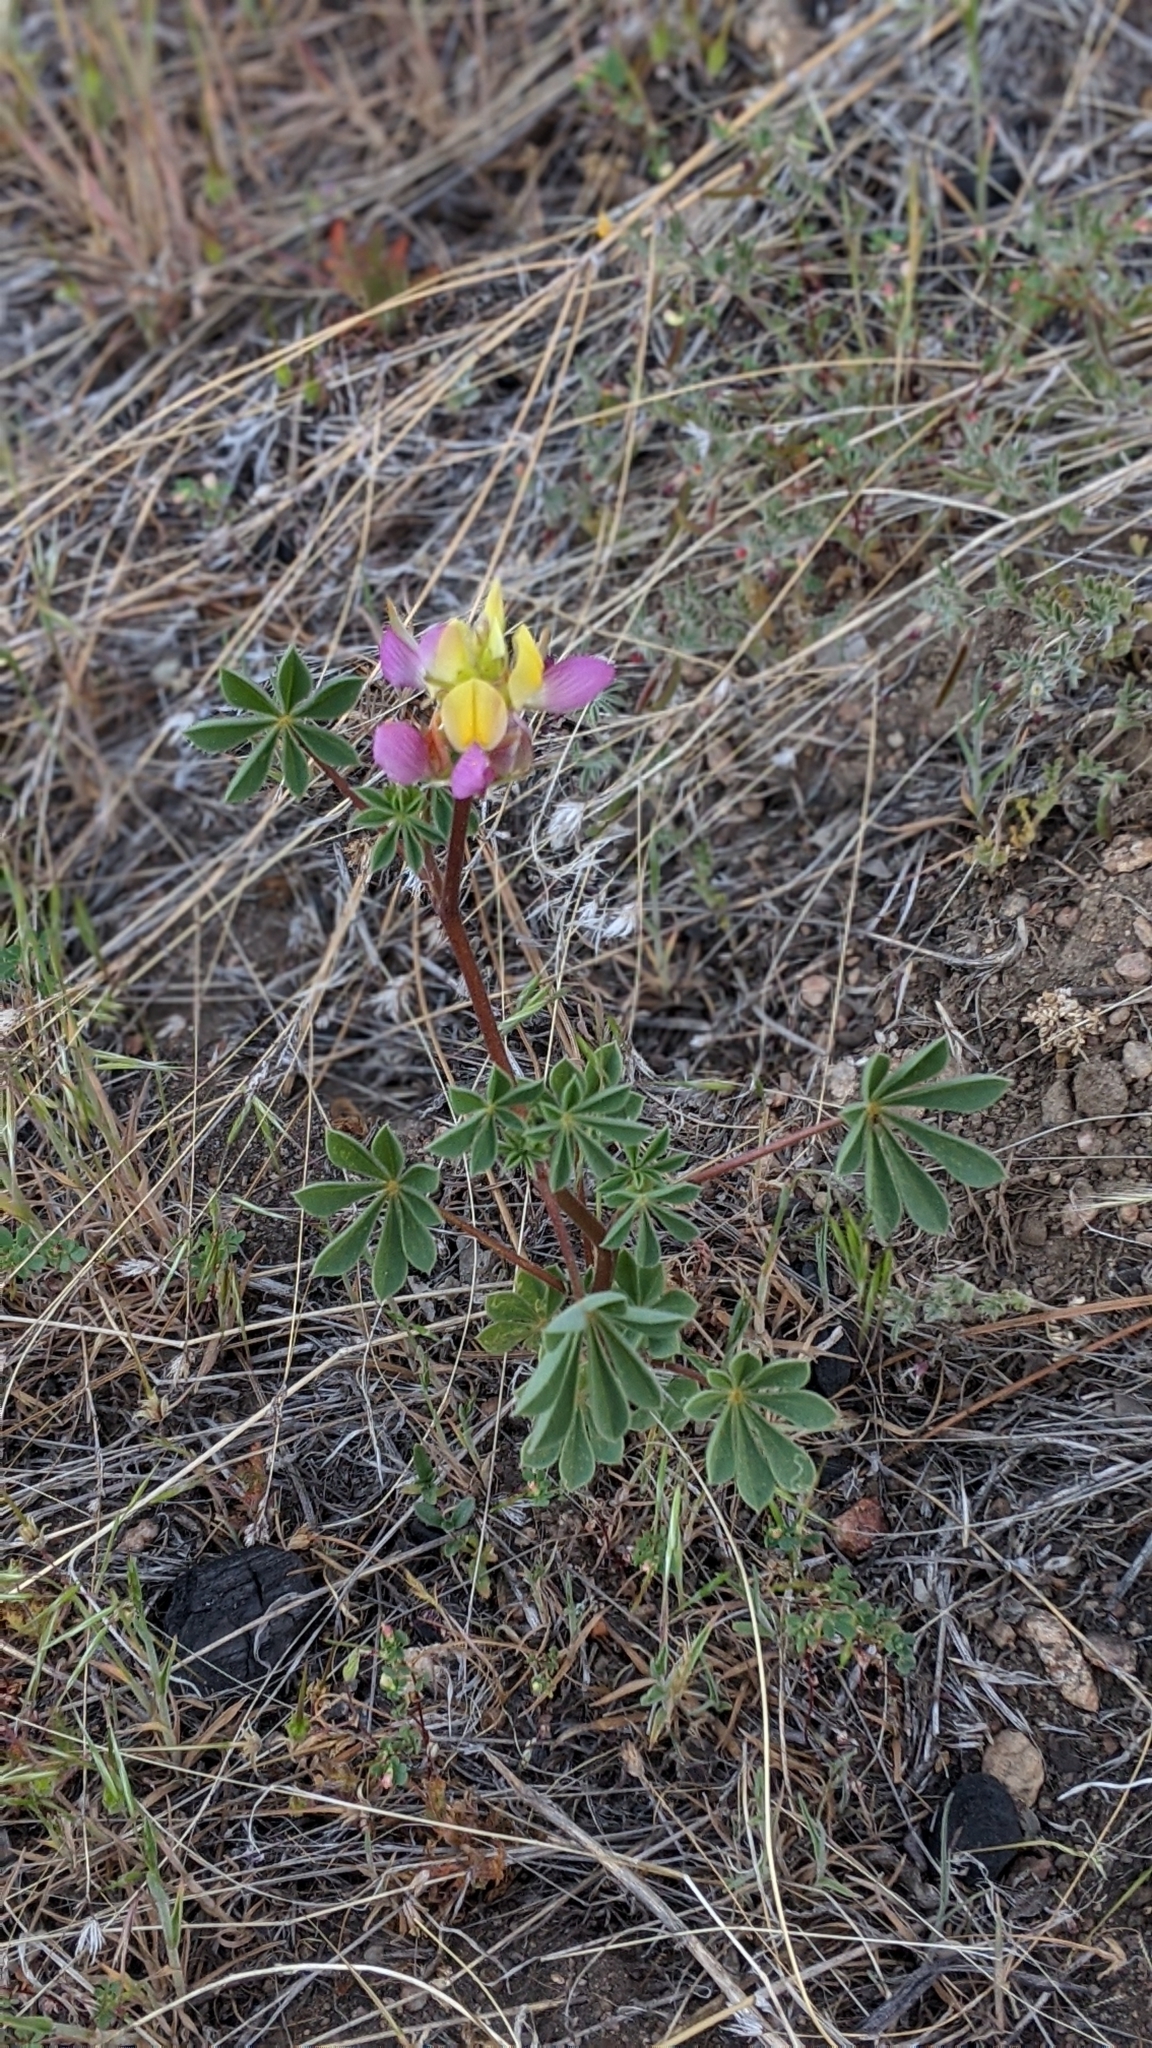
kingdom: Plantae
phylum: Tracheophyta
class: Magnoliopsida
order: Fabales
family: Fabaceae
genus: Lupinus
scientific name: Lupinus stiversii
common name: Harlequin lupine
